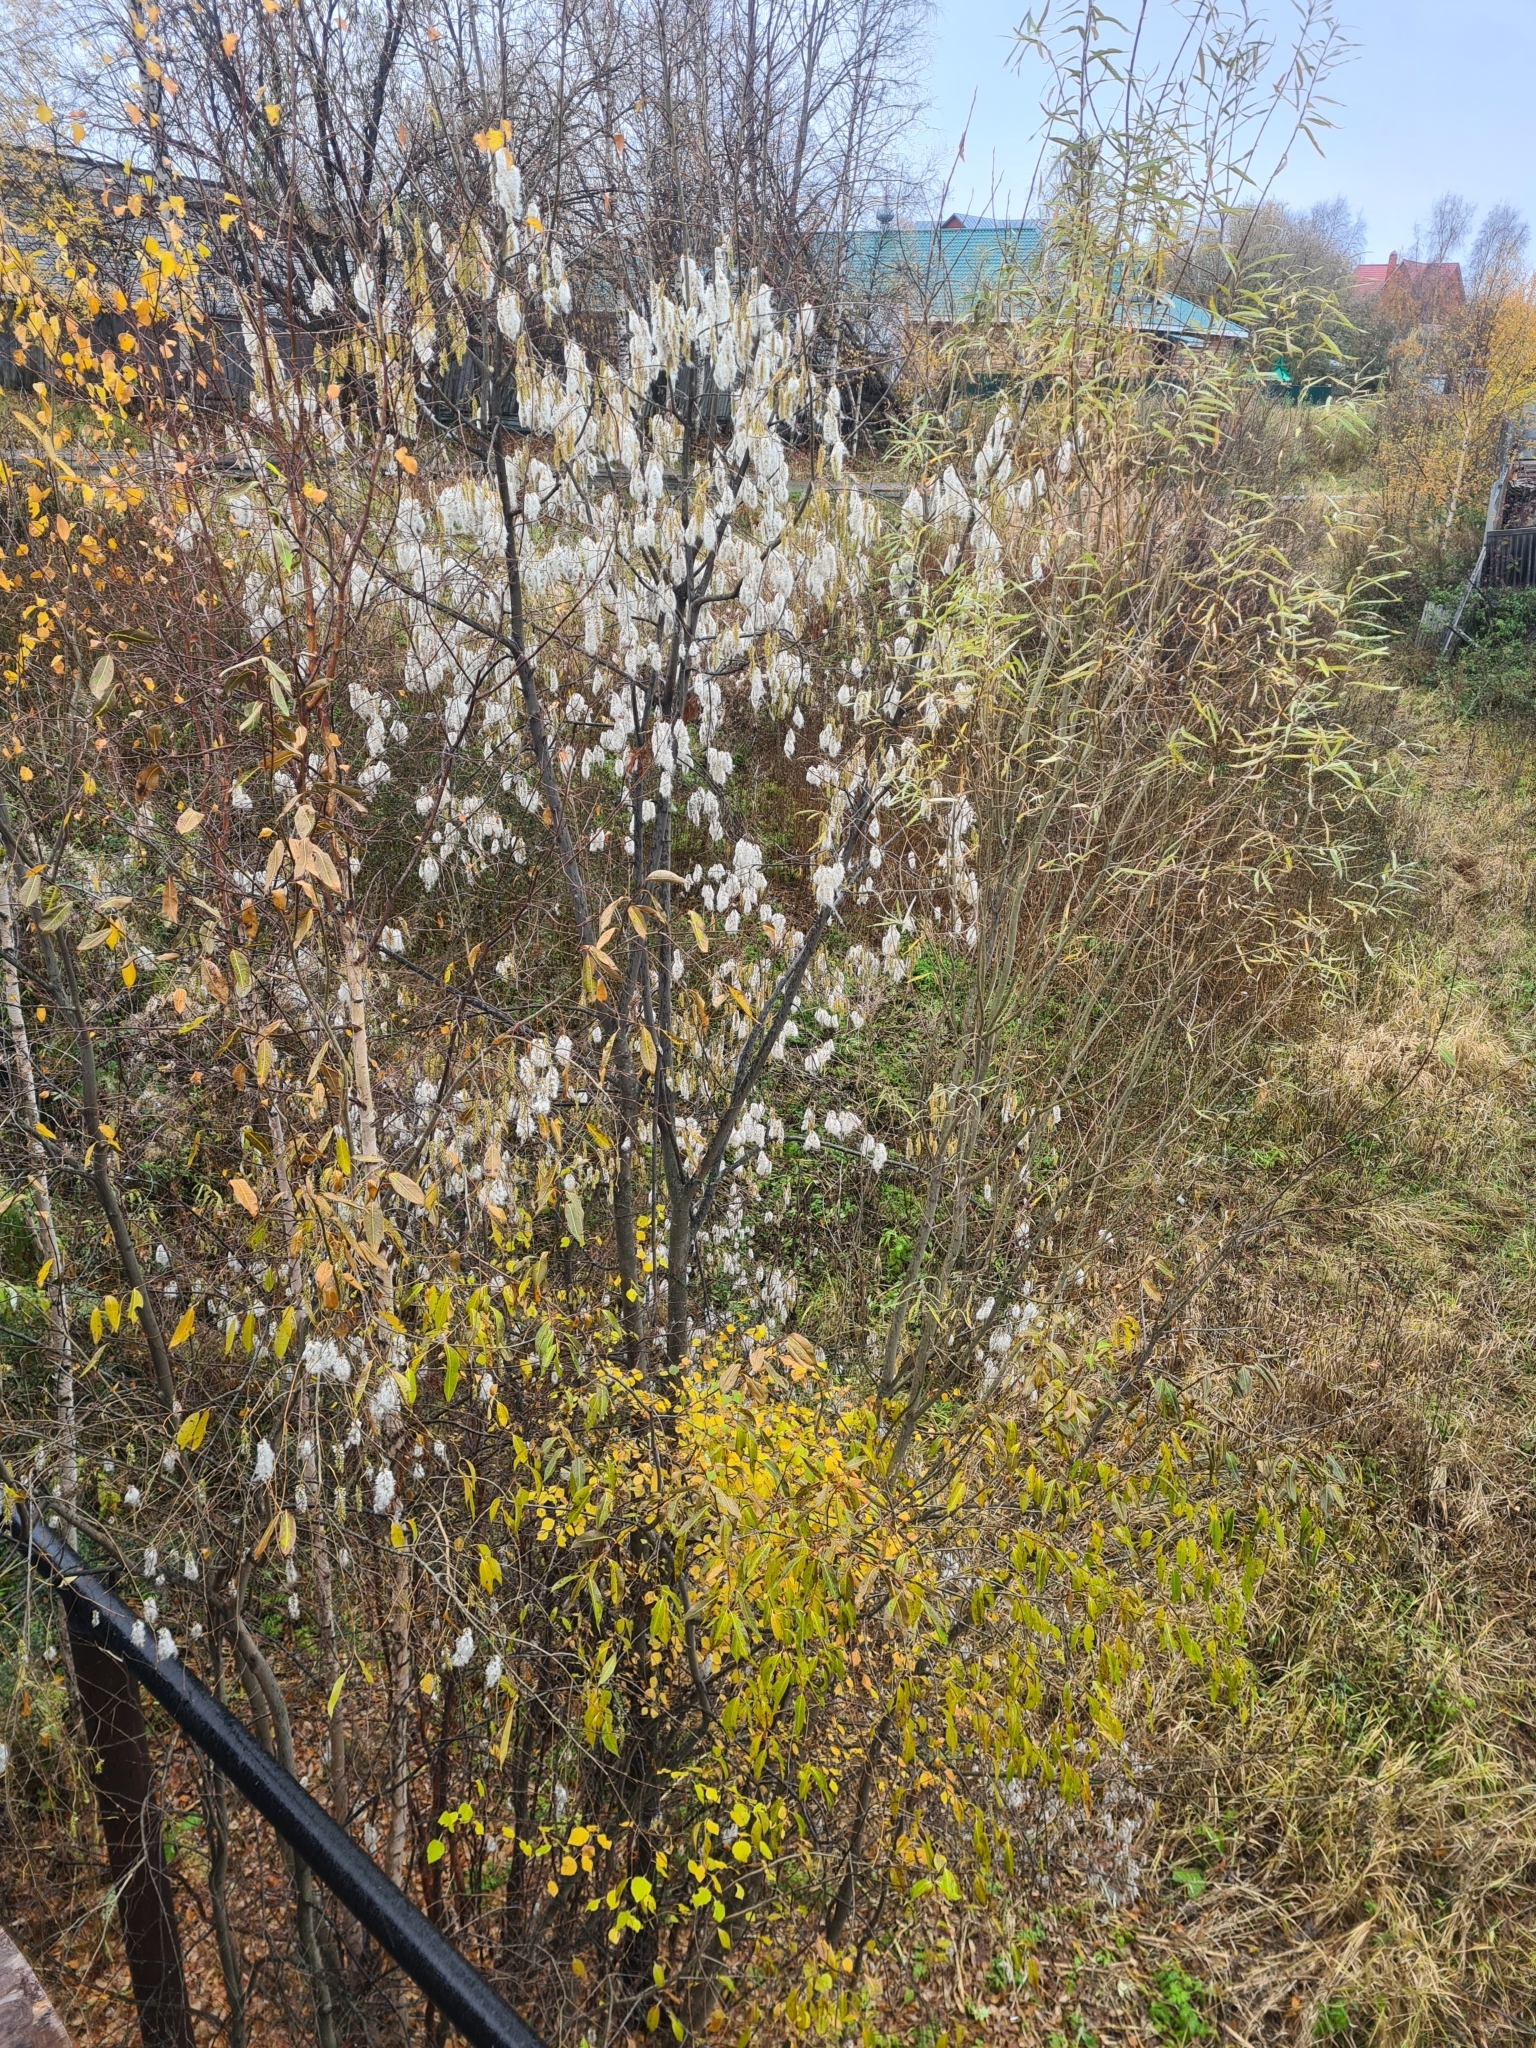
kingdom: Plantae
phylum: Tracheophyta
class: Magnoliopsida
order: Malpighiales
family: Salicaceae
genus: Salix
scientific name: Salix pentandra
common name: Bay willow
